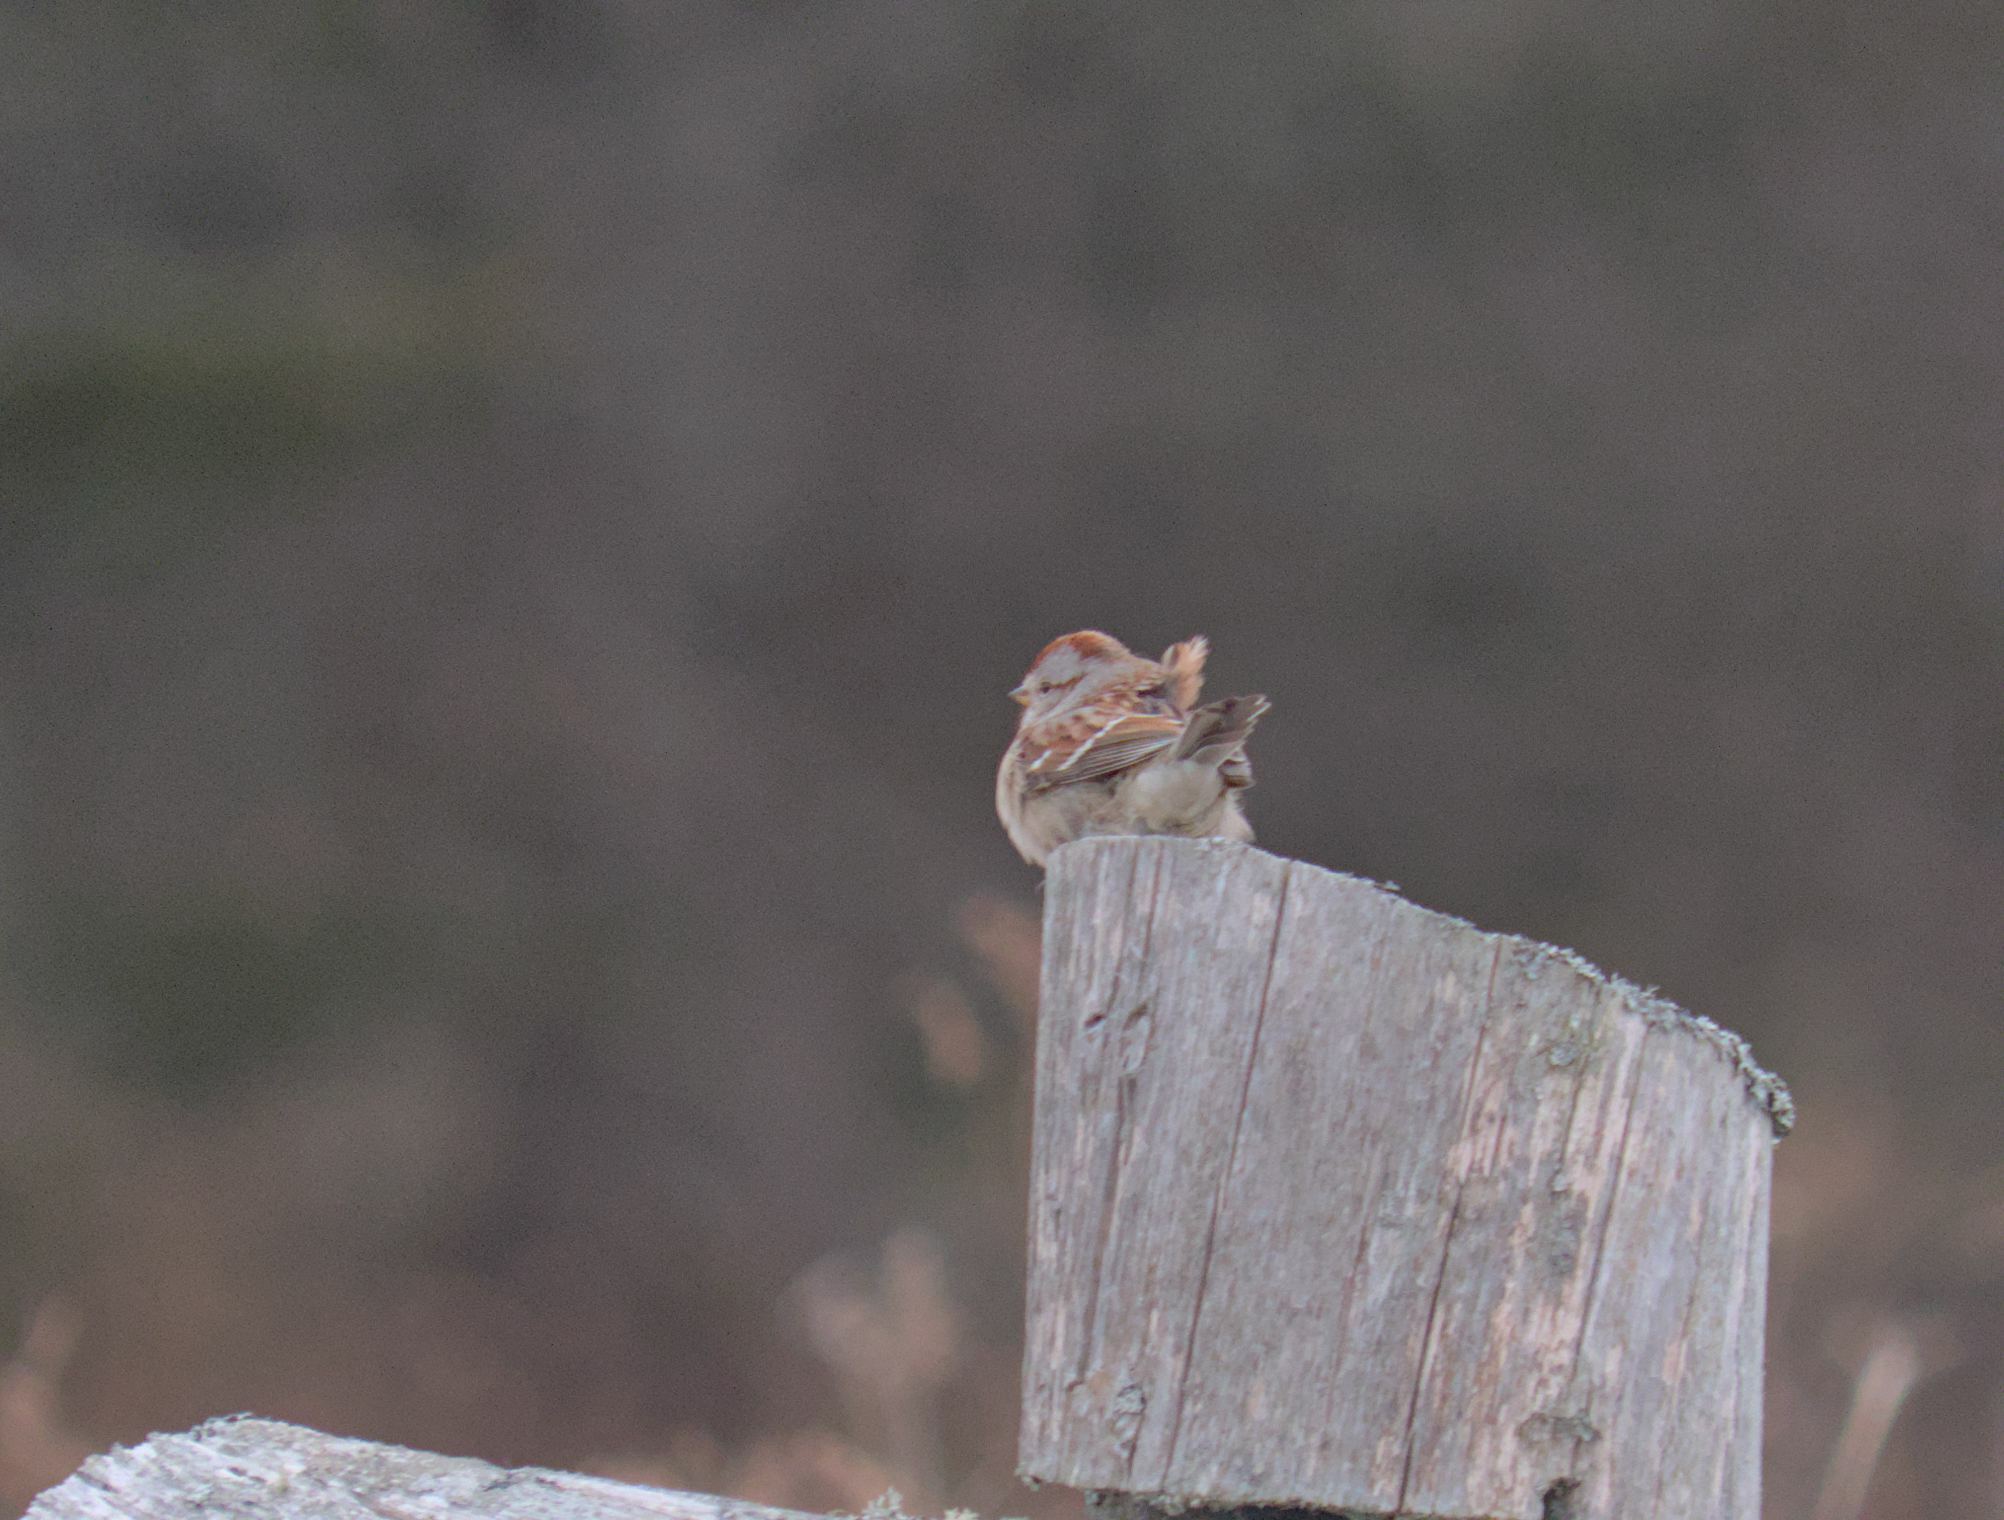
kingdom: Animalia
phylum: Chordata
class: Aves
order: Passeriformes
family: Passerellidae
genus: Spizelloides
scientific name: Spizelloides arborea
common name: American tree sparrow
